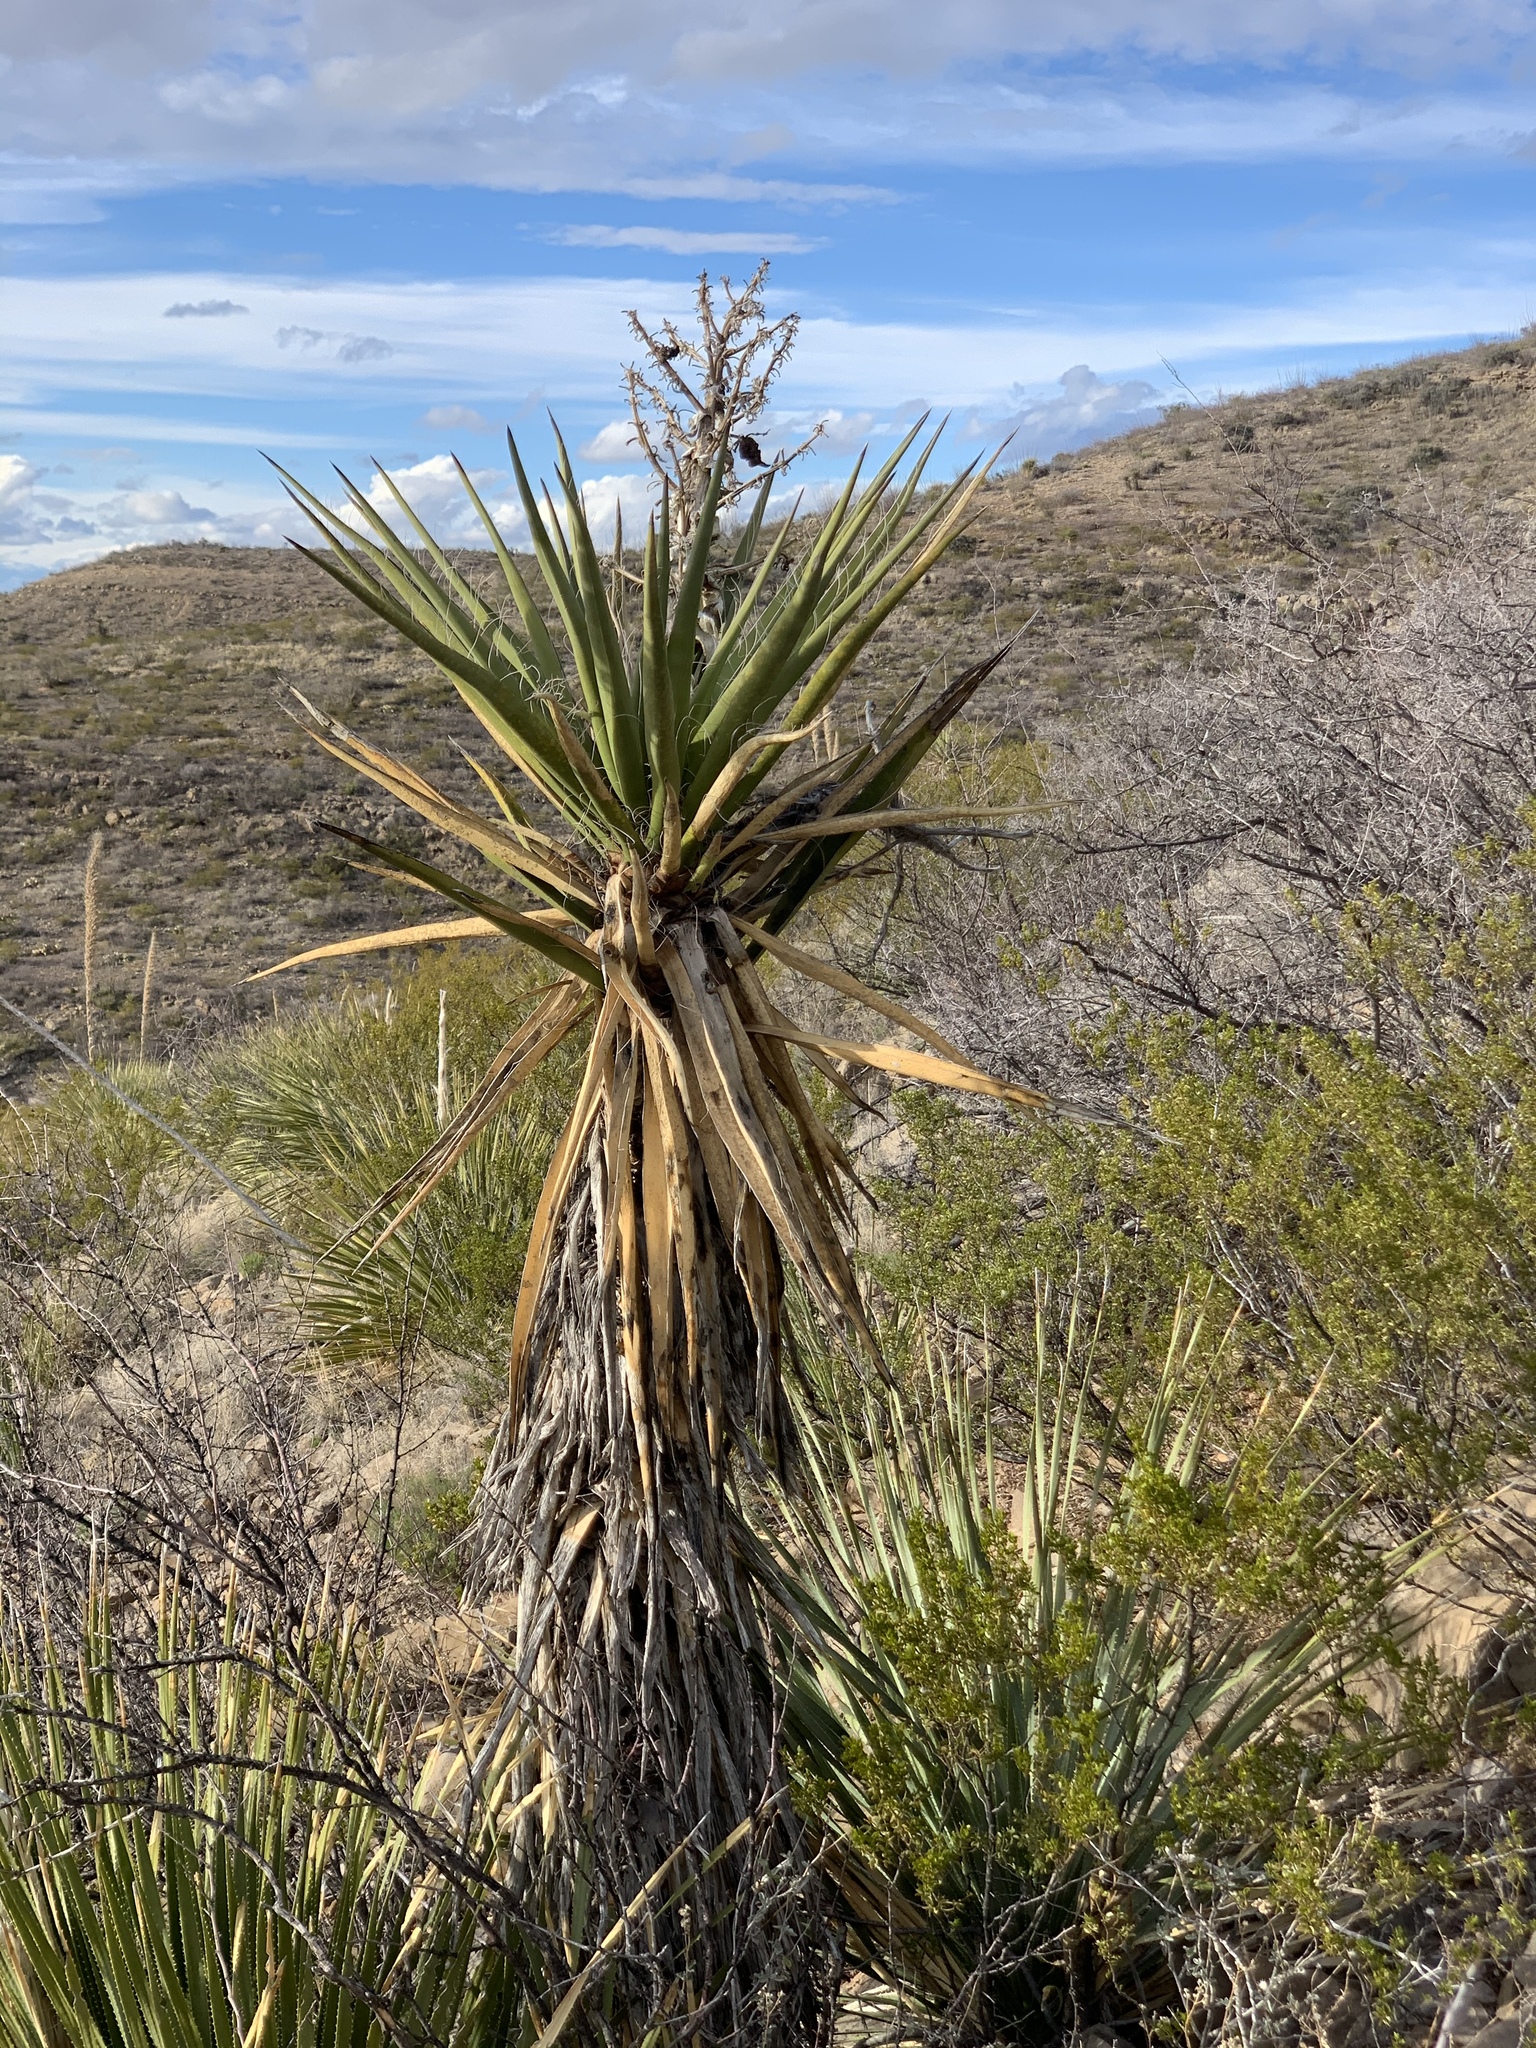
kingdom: Plantae
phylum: Tracheophyta
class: Liliopsida
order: Asparagales
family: Asparagaceae
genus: Yucca
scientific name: Yucca treculiana
